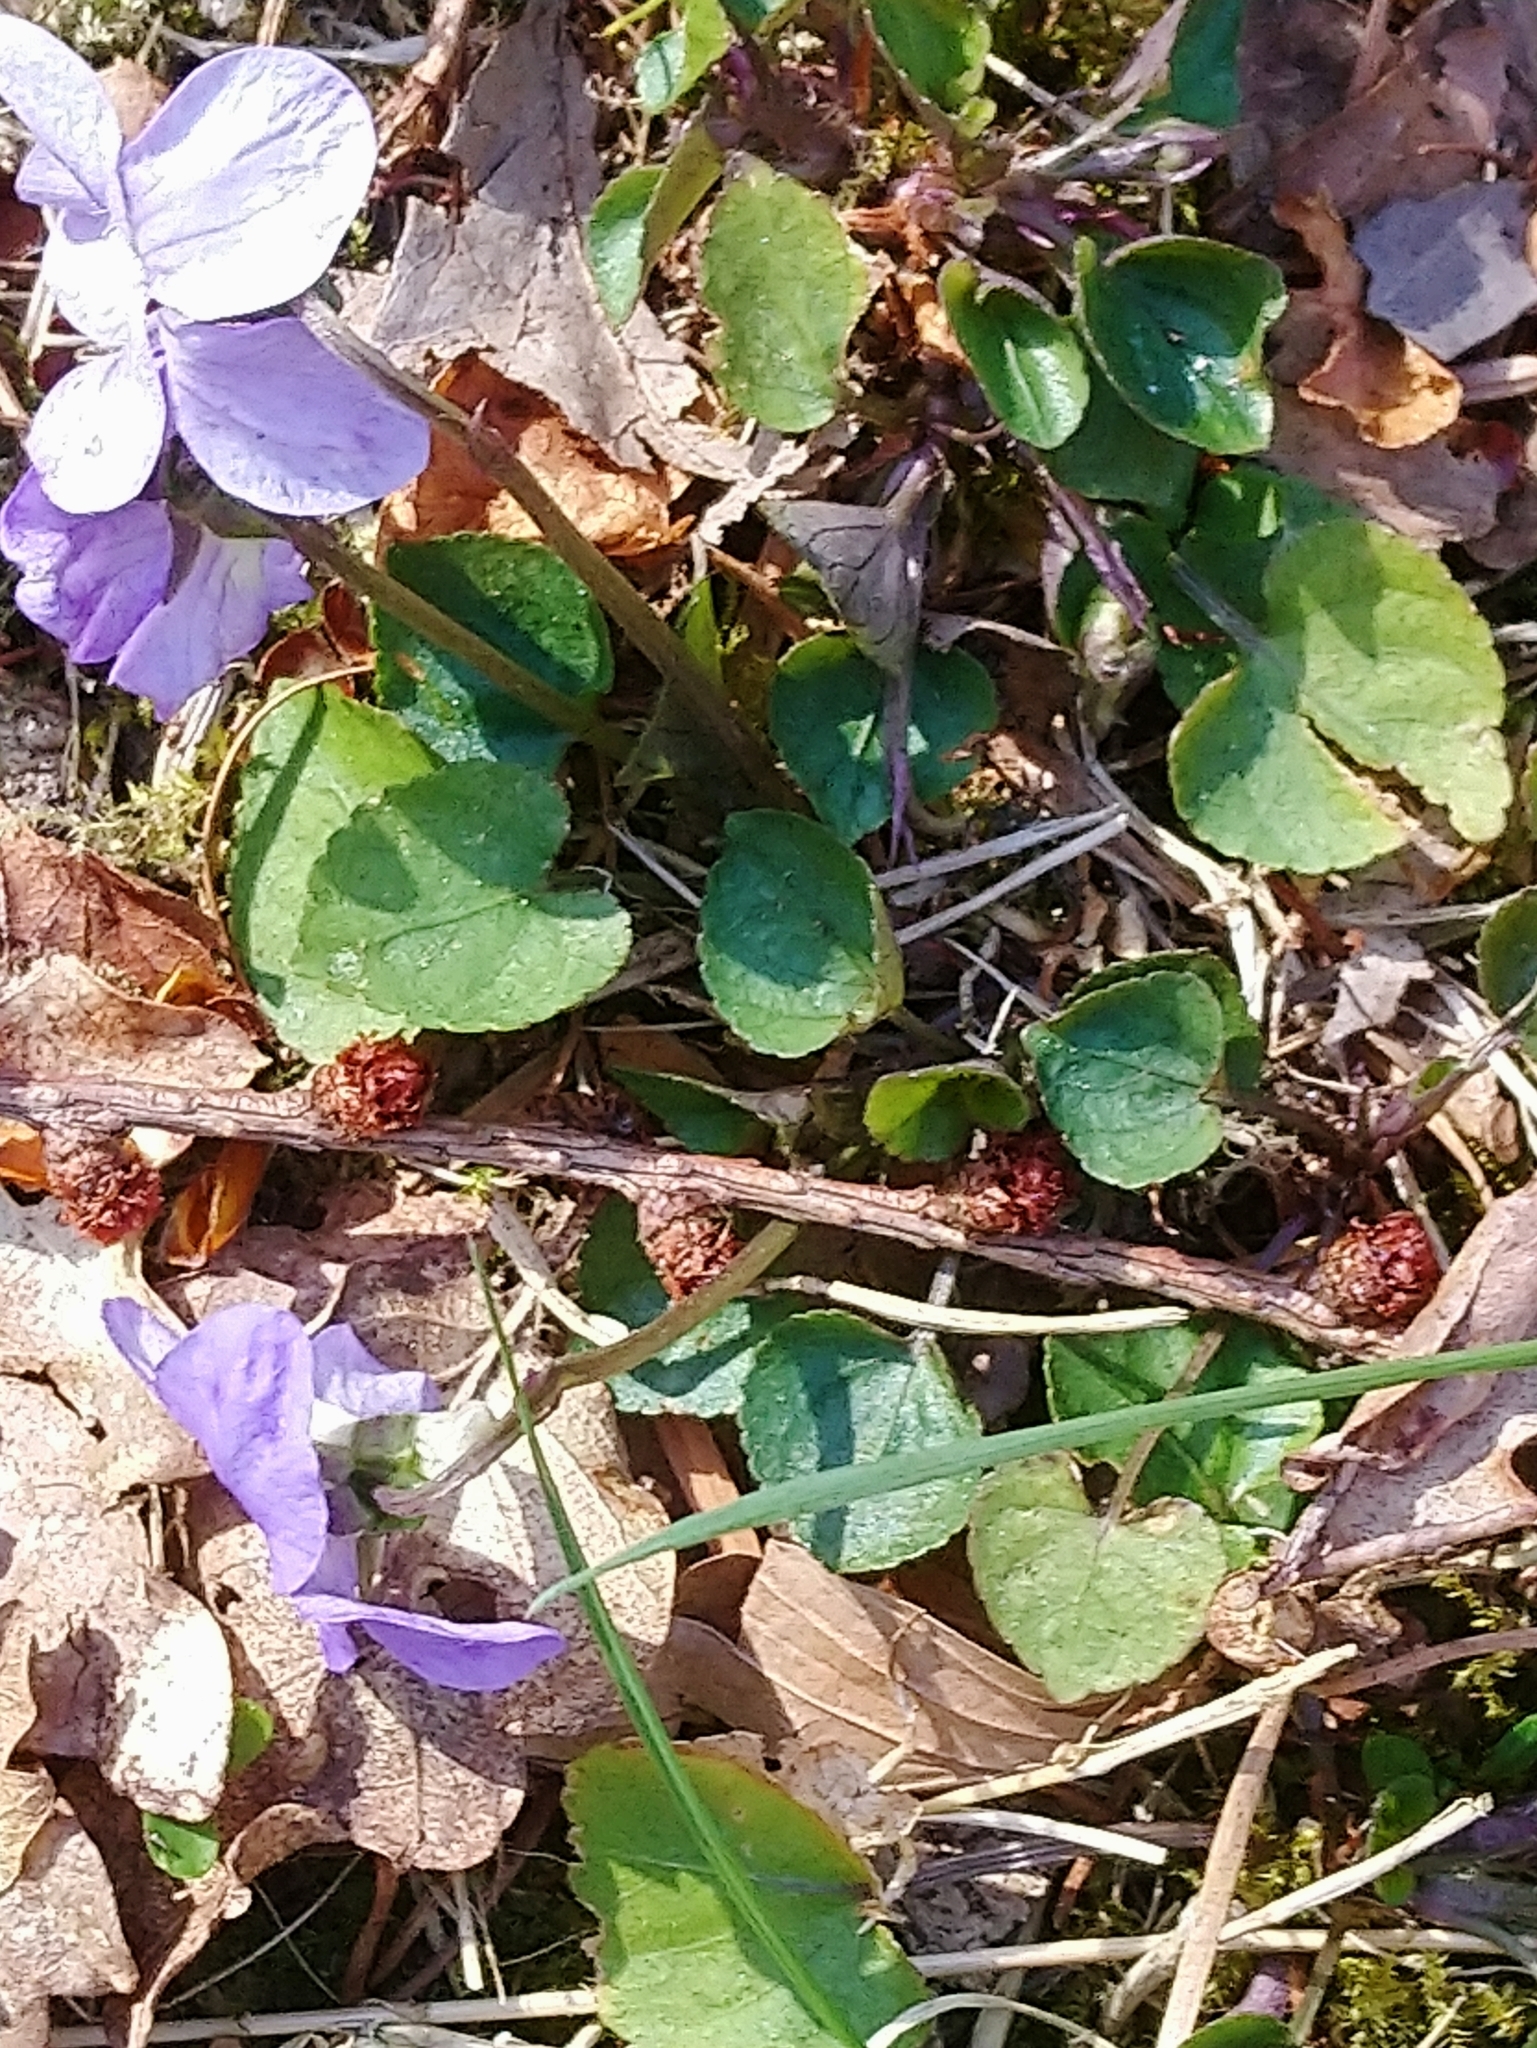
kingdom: Plantae
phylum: Tracheophyta
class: Magnoliopsida
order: Malpighiales
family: Violaceae
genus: Viola
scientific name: Viola riviniana
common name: Common dog-violet
